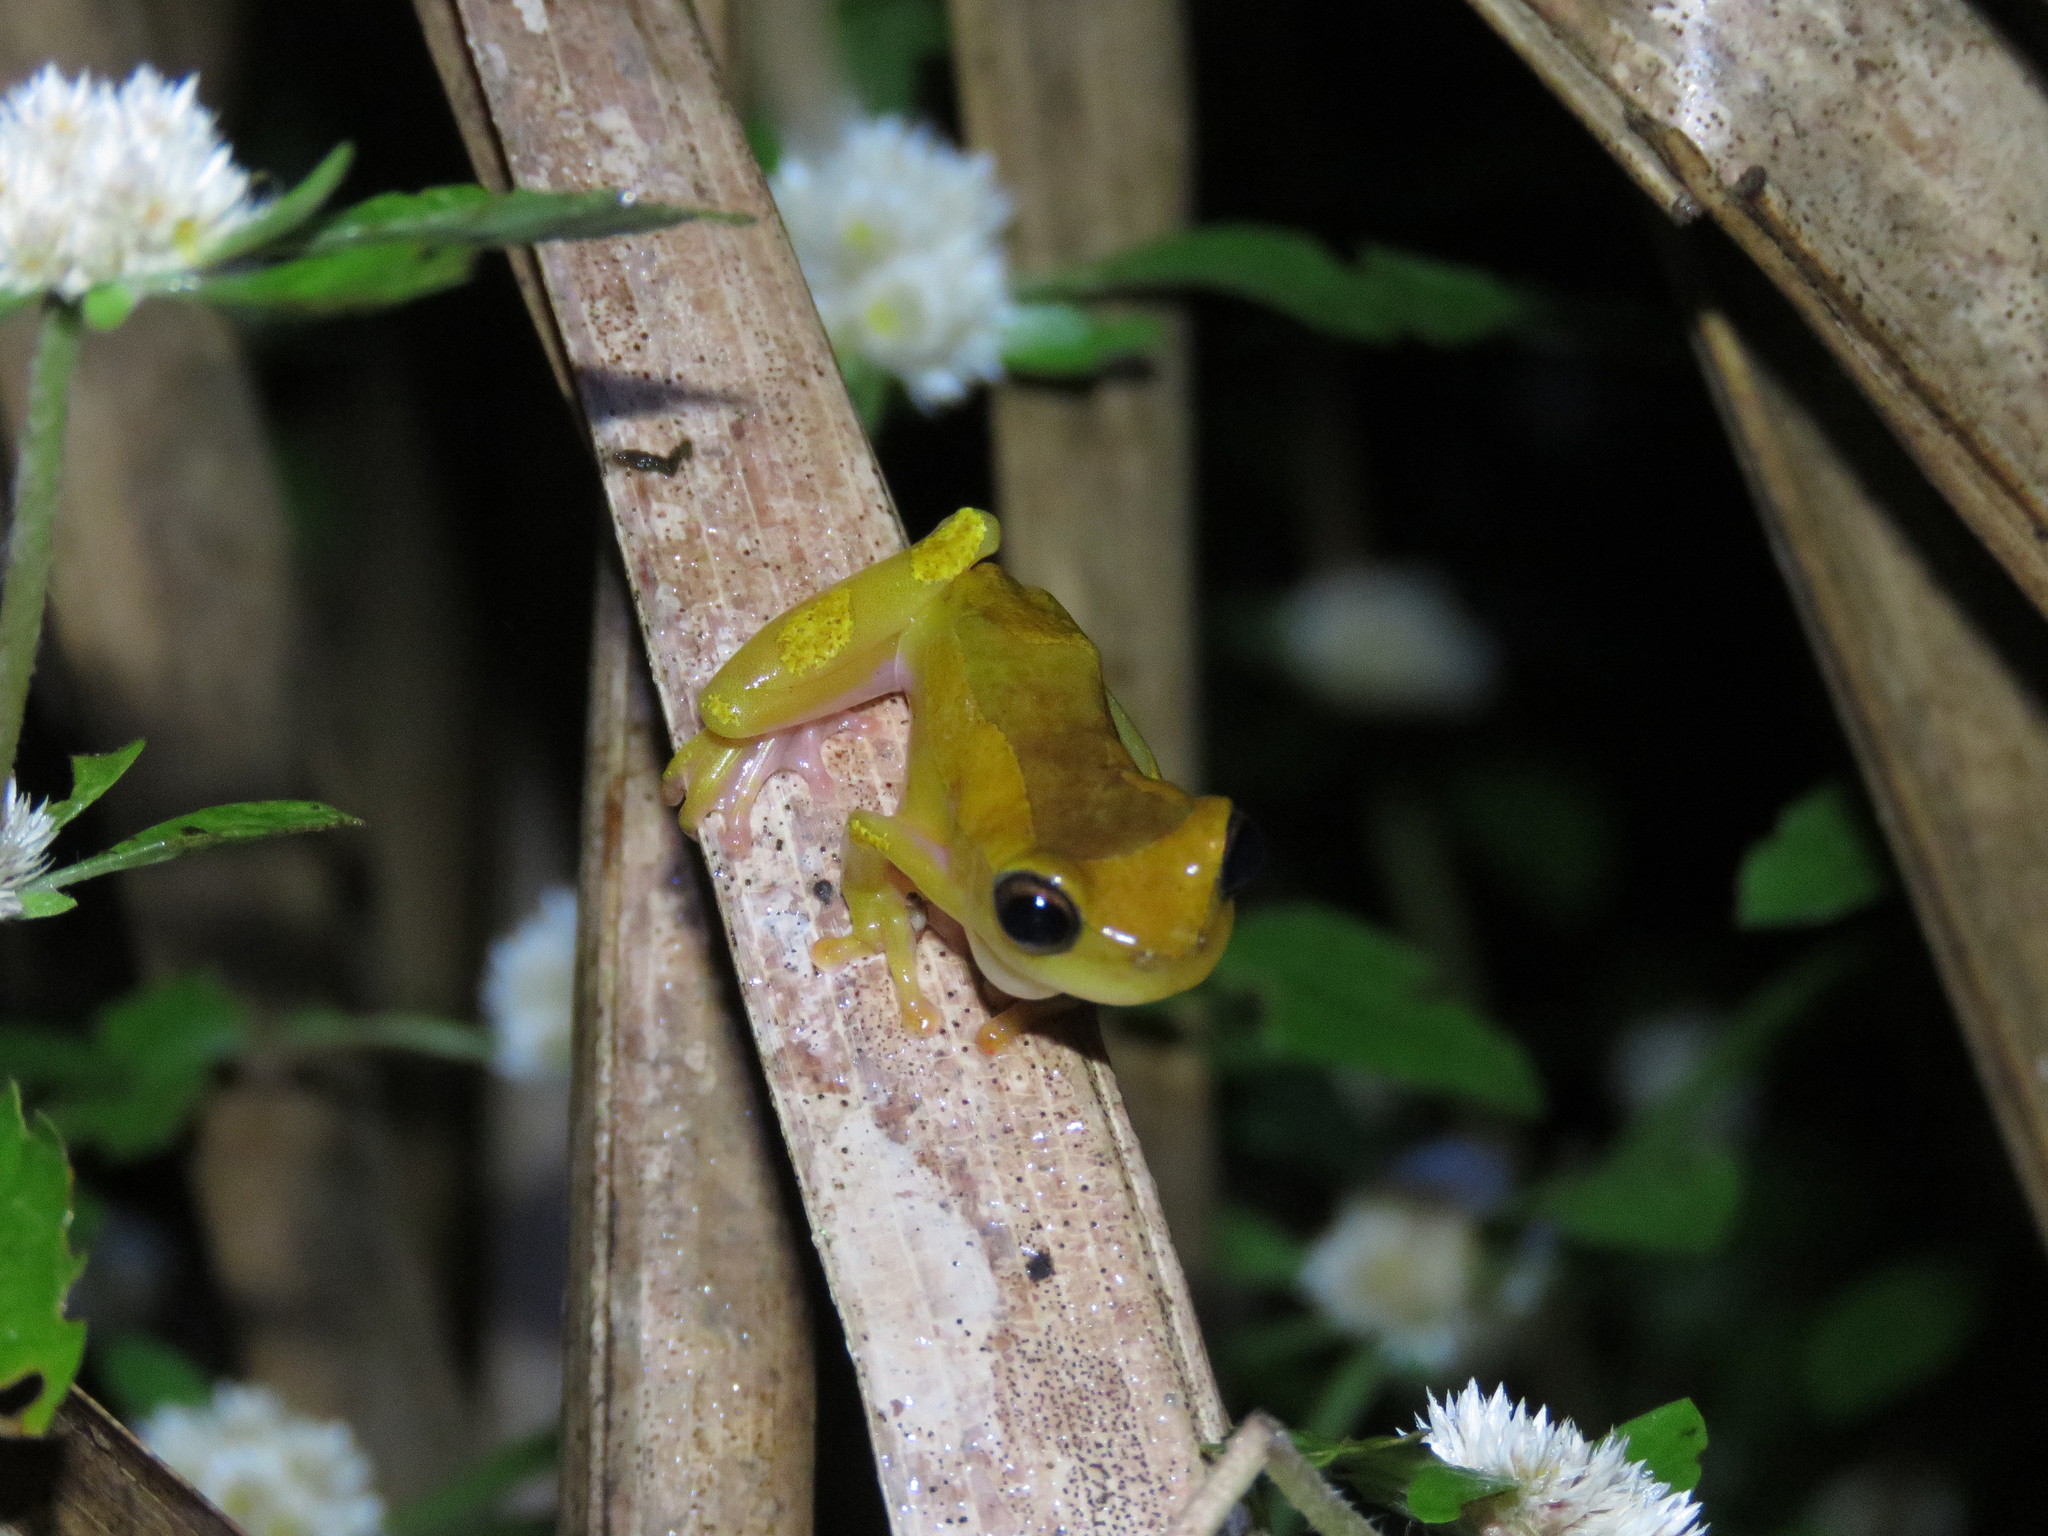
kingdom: Animalia
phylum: Chordata
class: Amphibia
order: Anura
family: Hylidae
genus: Dendropsophus
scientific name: Dendropsophus arndti
